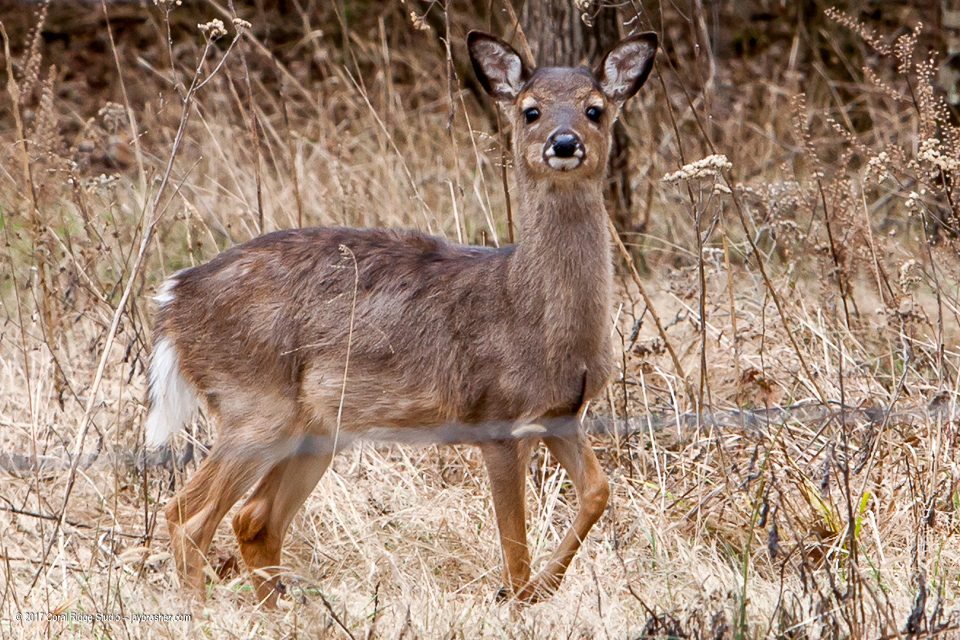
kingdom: Animalia
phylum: Chordata
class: Mammalia
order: Artiodactyla
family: Cervidae
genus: Odocoileus
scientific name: Odocoileus virginianus
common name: White-tailed deer
